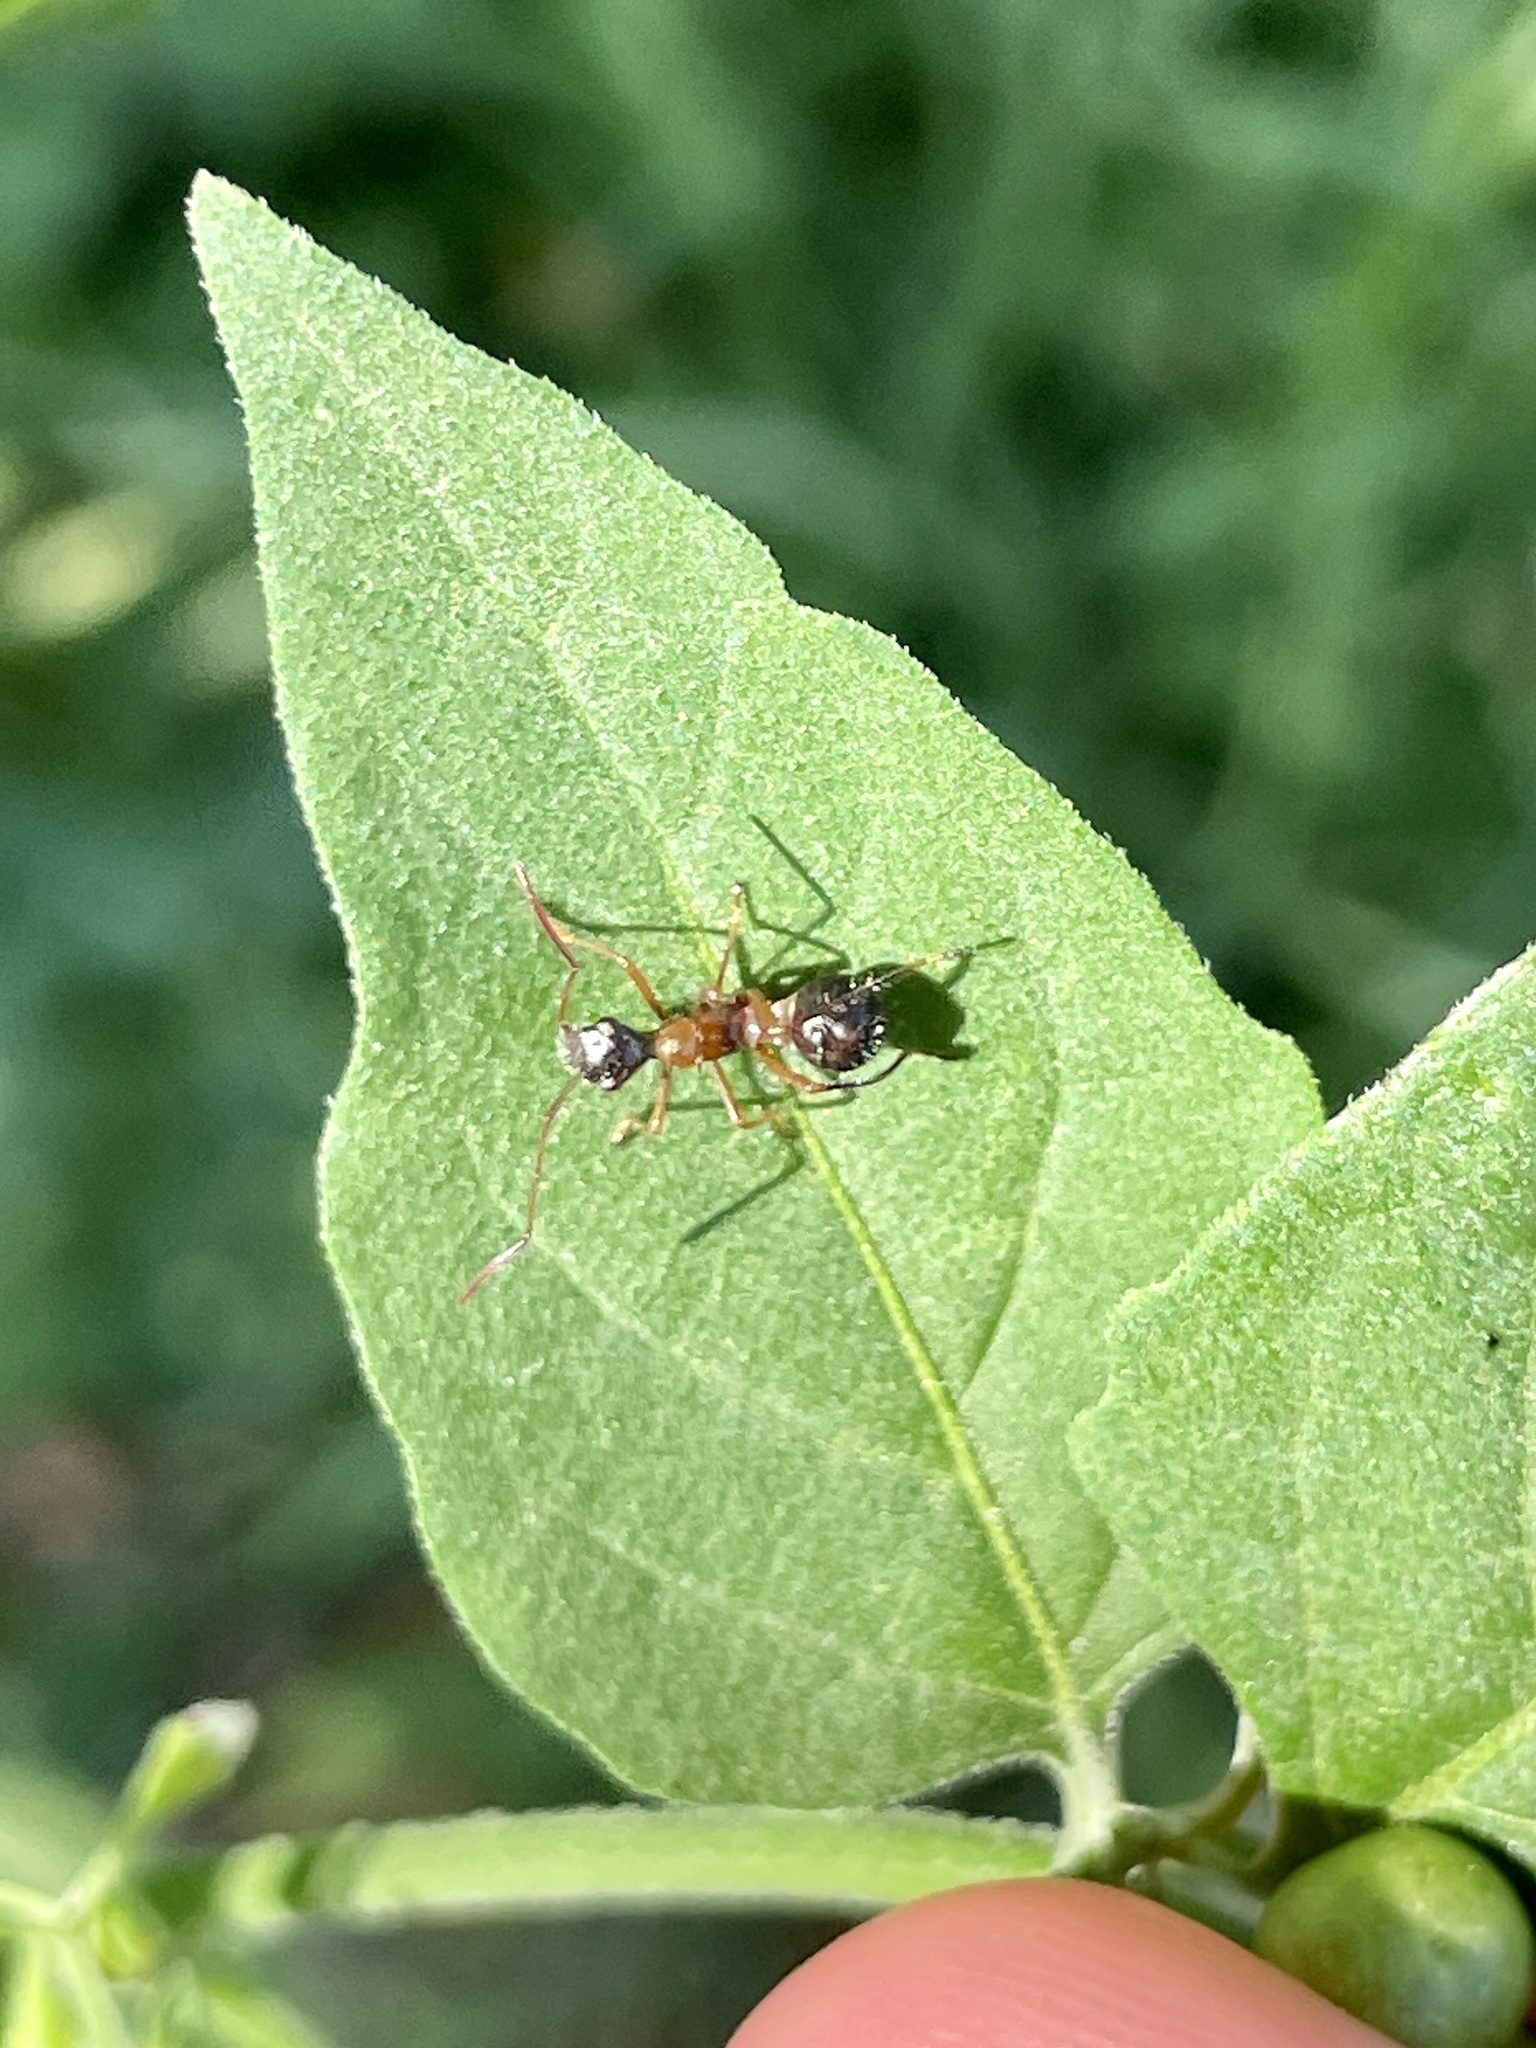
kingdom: Animalia
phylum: Arthropoda
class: Insecta
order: Hemiptera
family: Alydidae
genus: Hyalymenus
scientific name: Hyalymenus tarsatus
